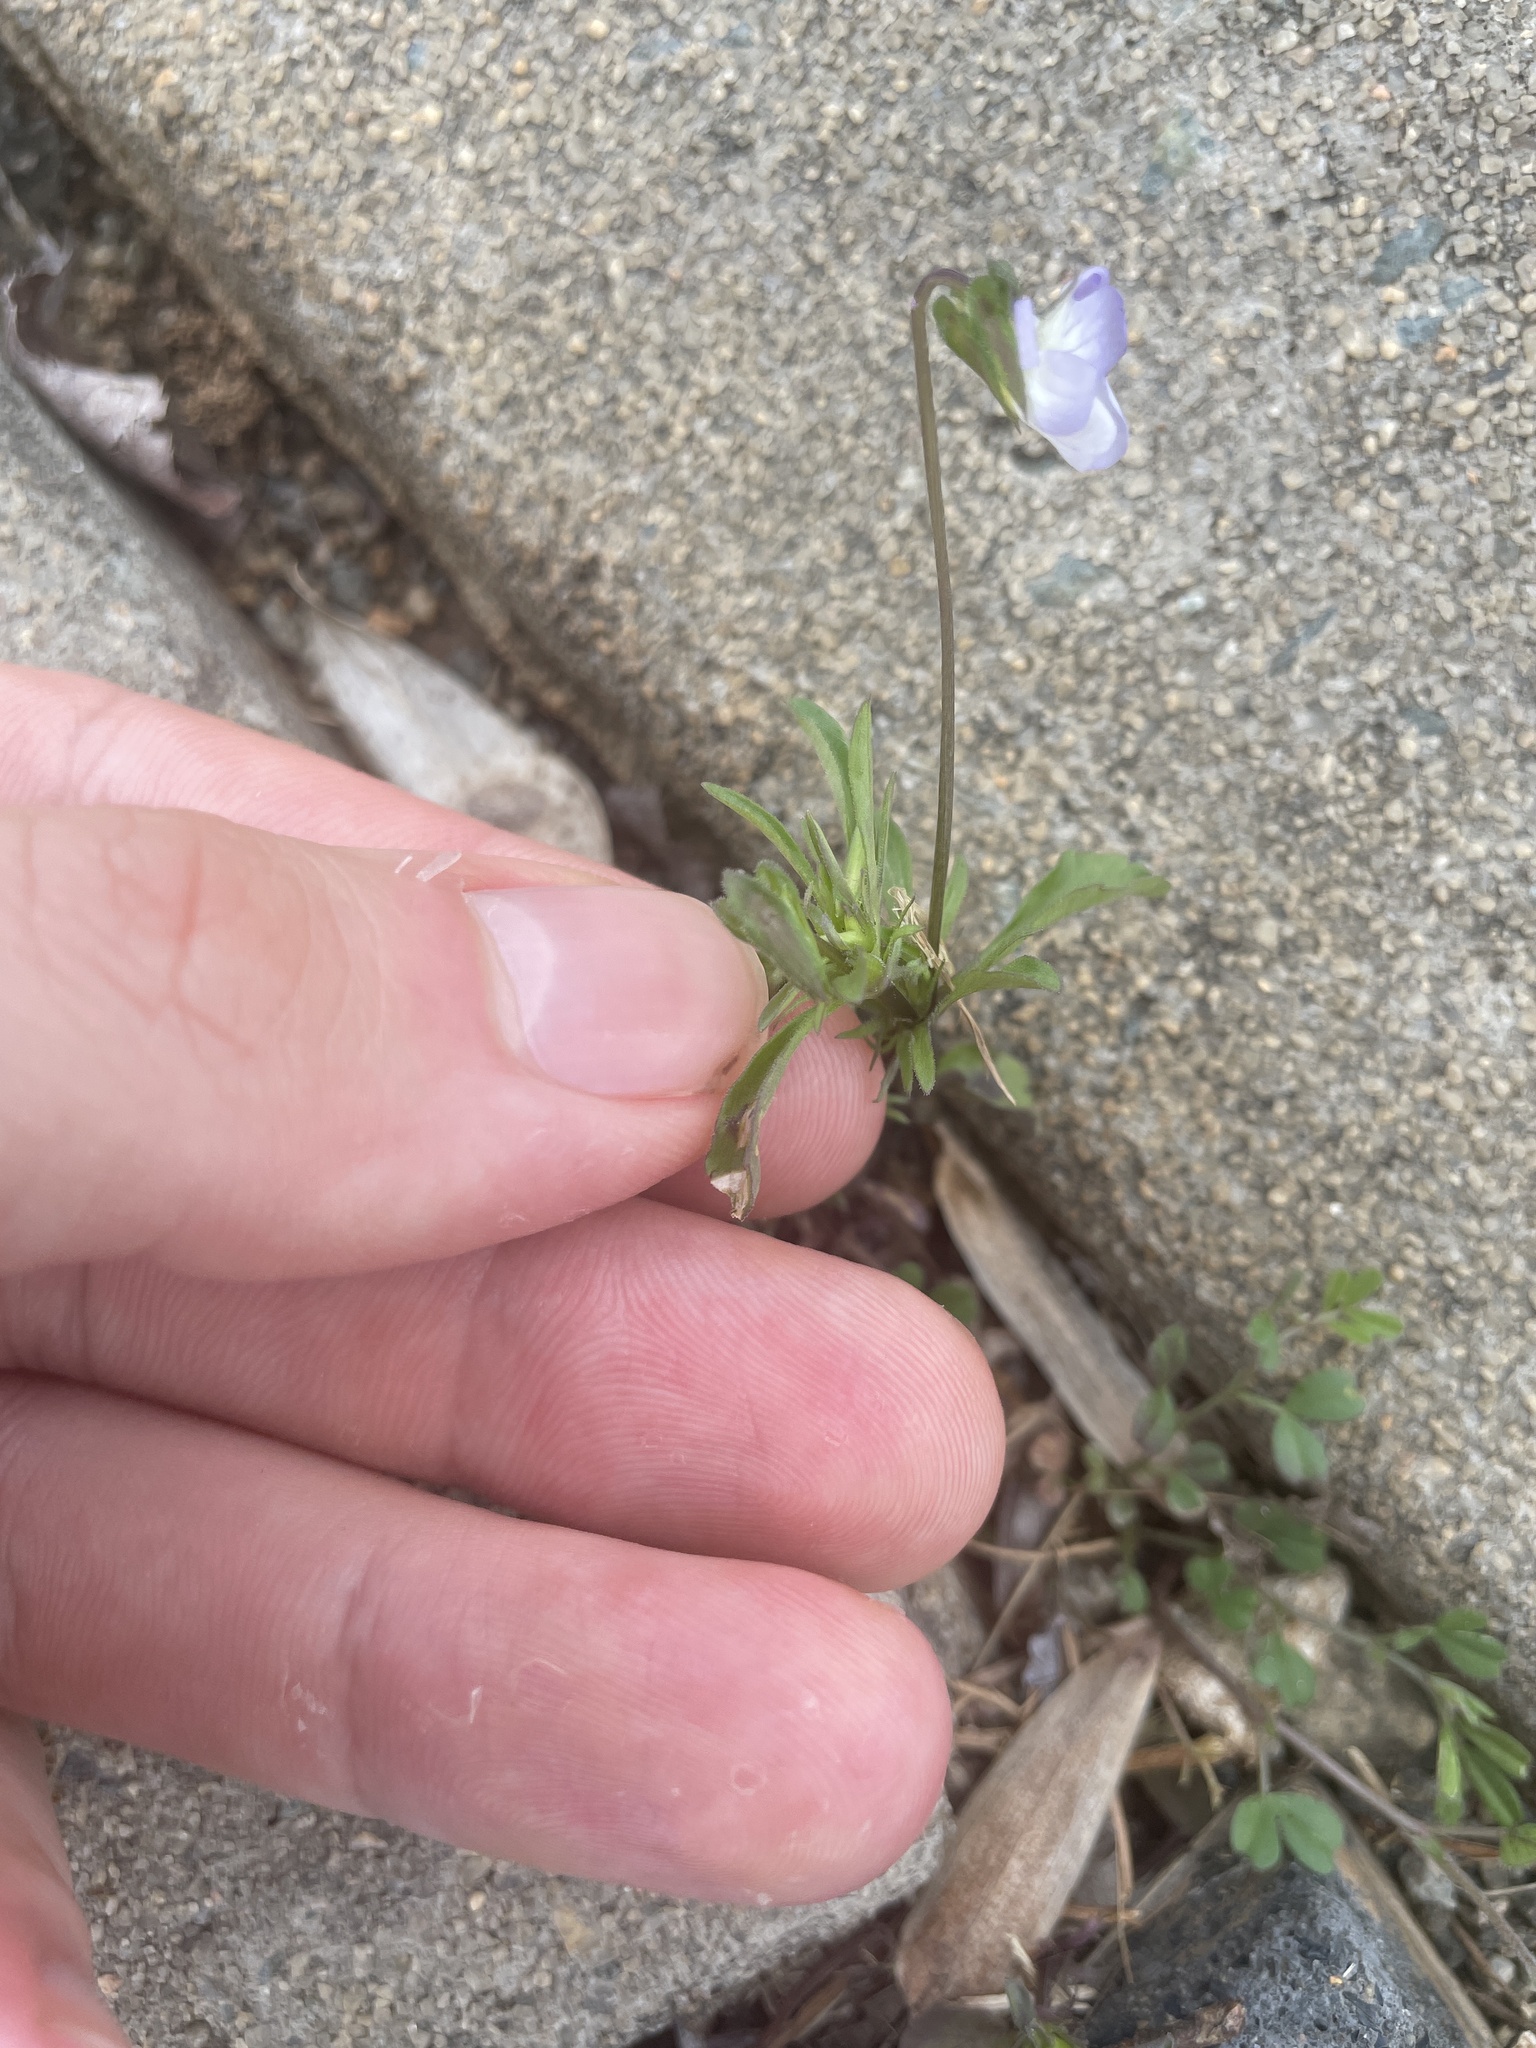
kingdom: Plantae
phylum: Tracheophyta
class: Magnoliopsida
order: Malpighiales
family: Violaceae
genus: Viola
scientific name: Viola rafinesquei
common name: American field pansy
